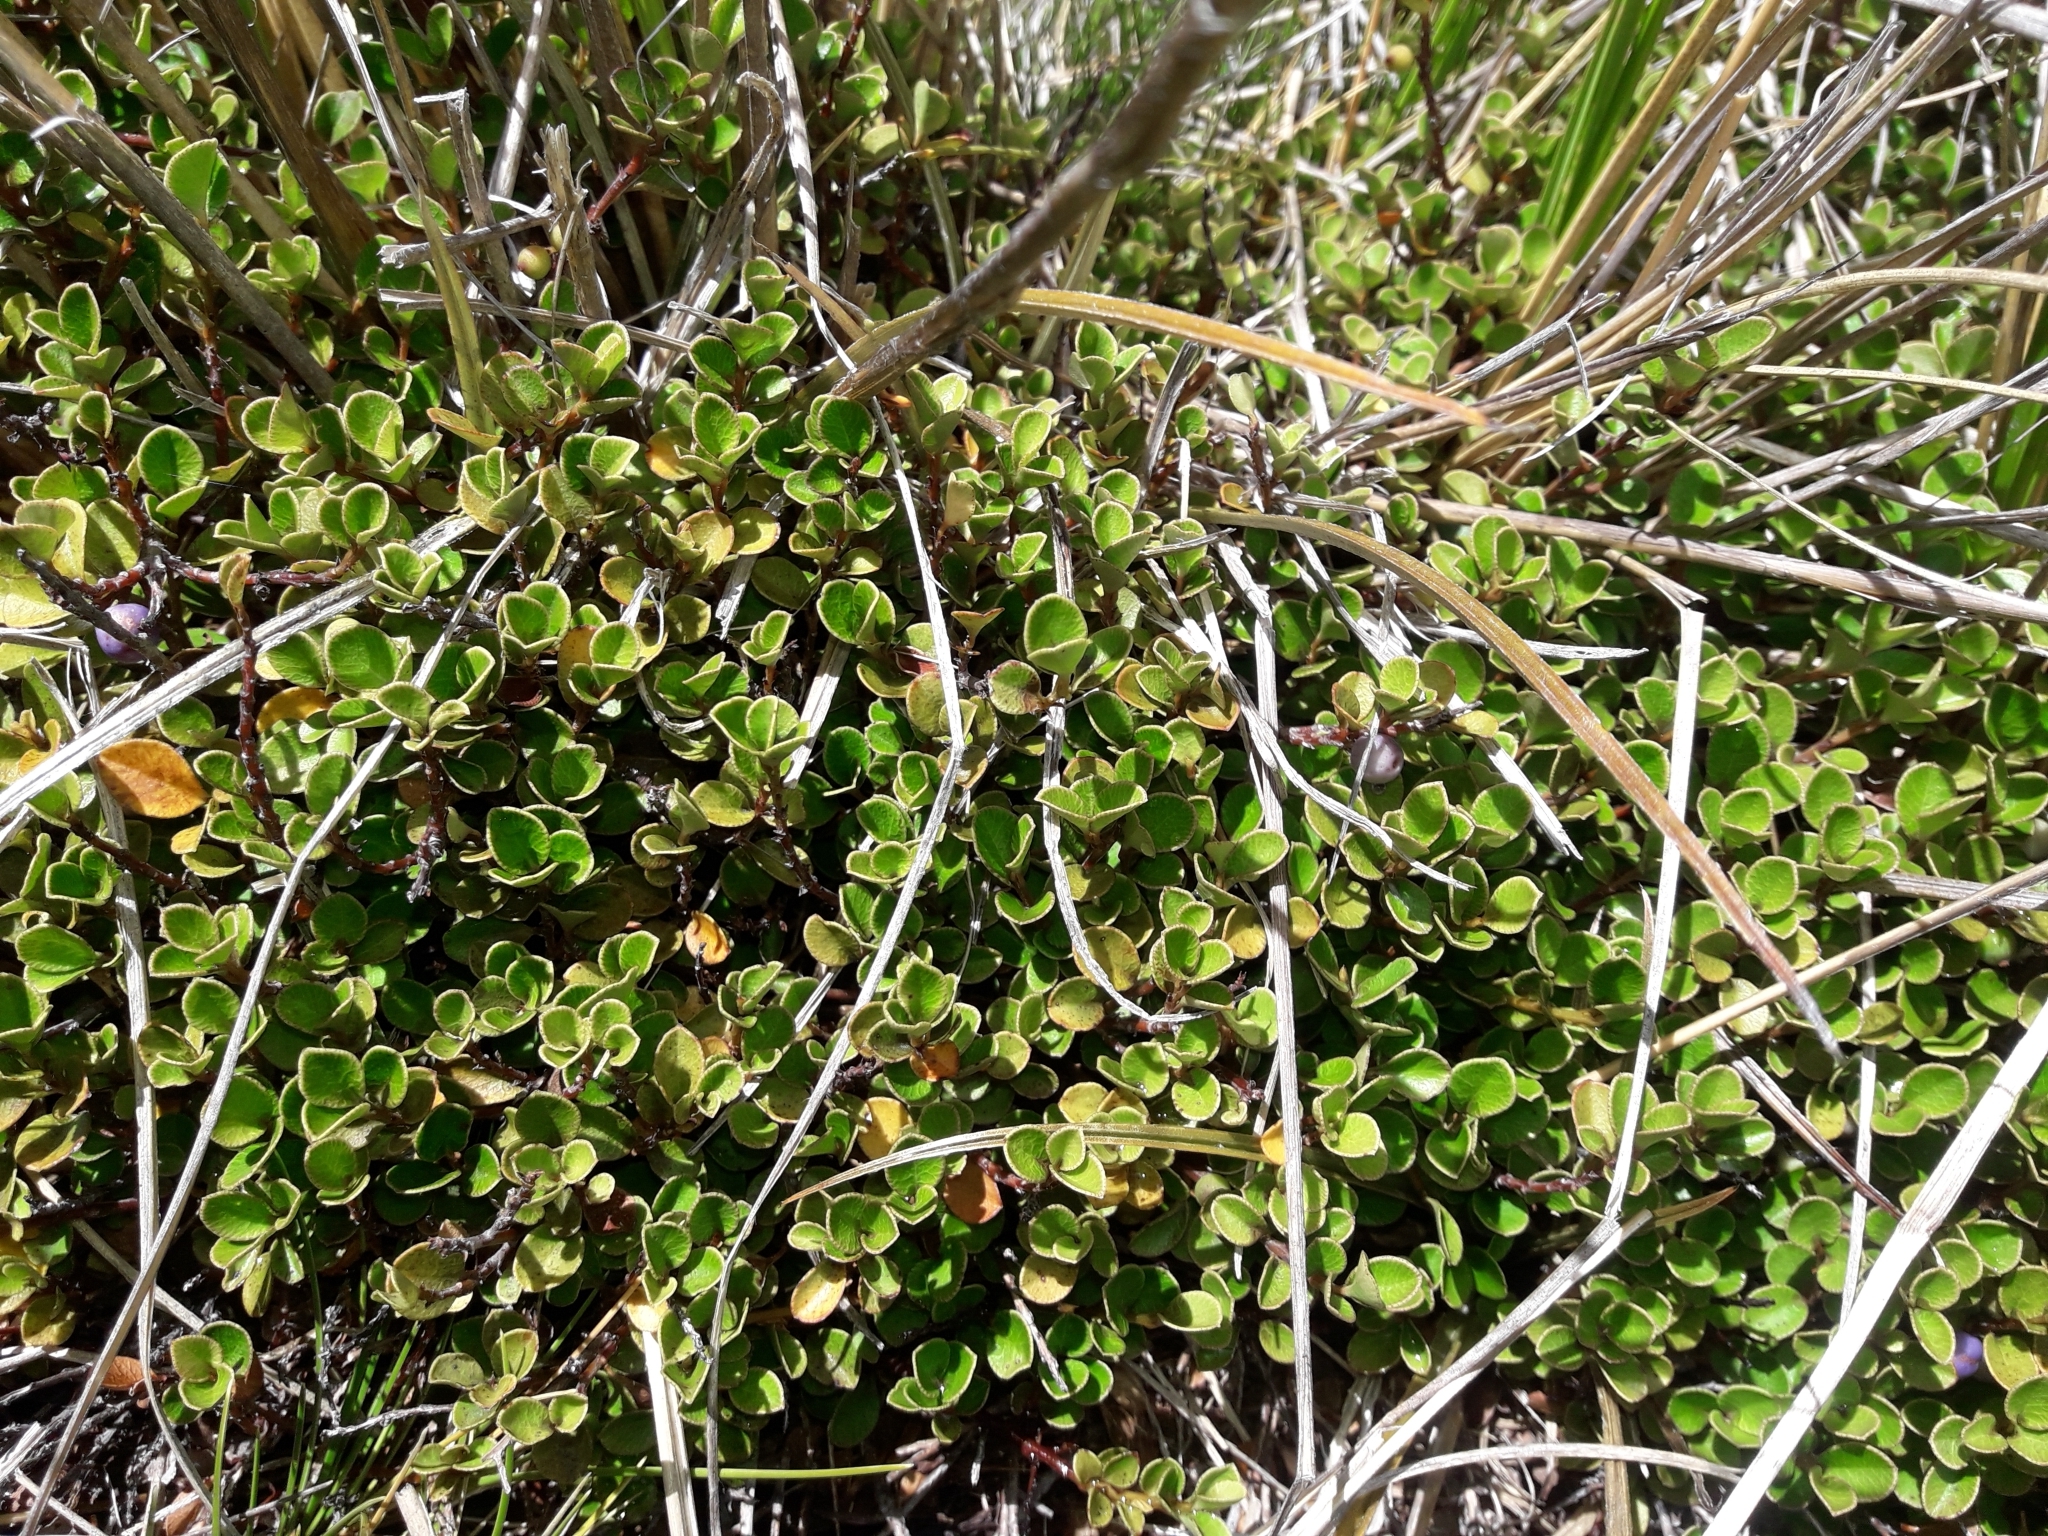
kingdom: Plantae
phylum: Tracheophyta
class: Magnoliopsida
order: Ericales
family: Primulaceae
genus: Myrsine
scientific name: Myrsine nummularia
